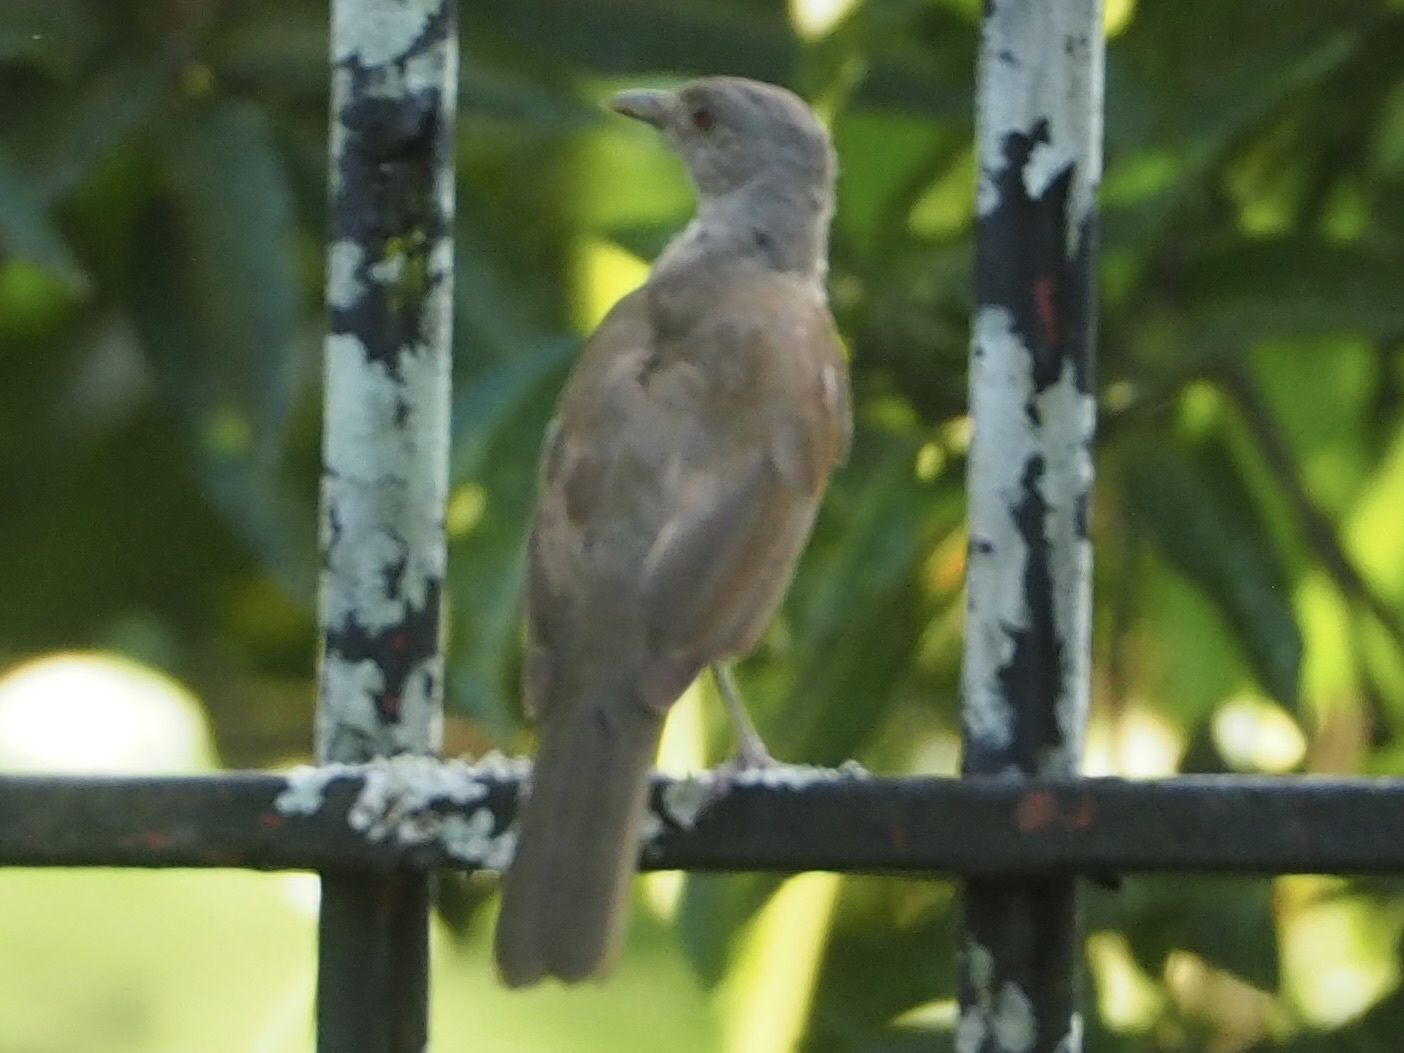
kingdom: Animalia
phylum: Chordata
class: Aves
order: Passeriformes
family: Turdidae
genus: Turdus
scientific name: Turdus leucomelas
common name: Pale-breasted thrush
